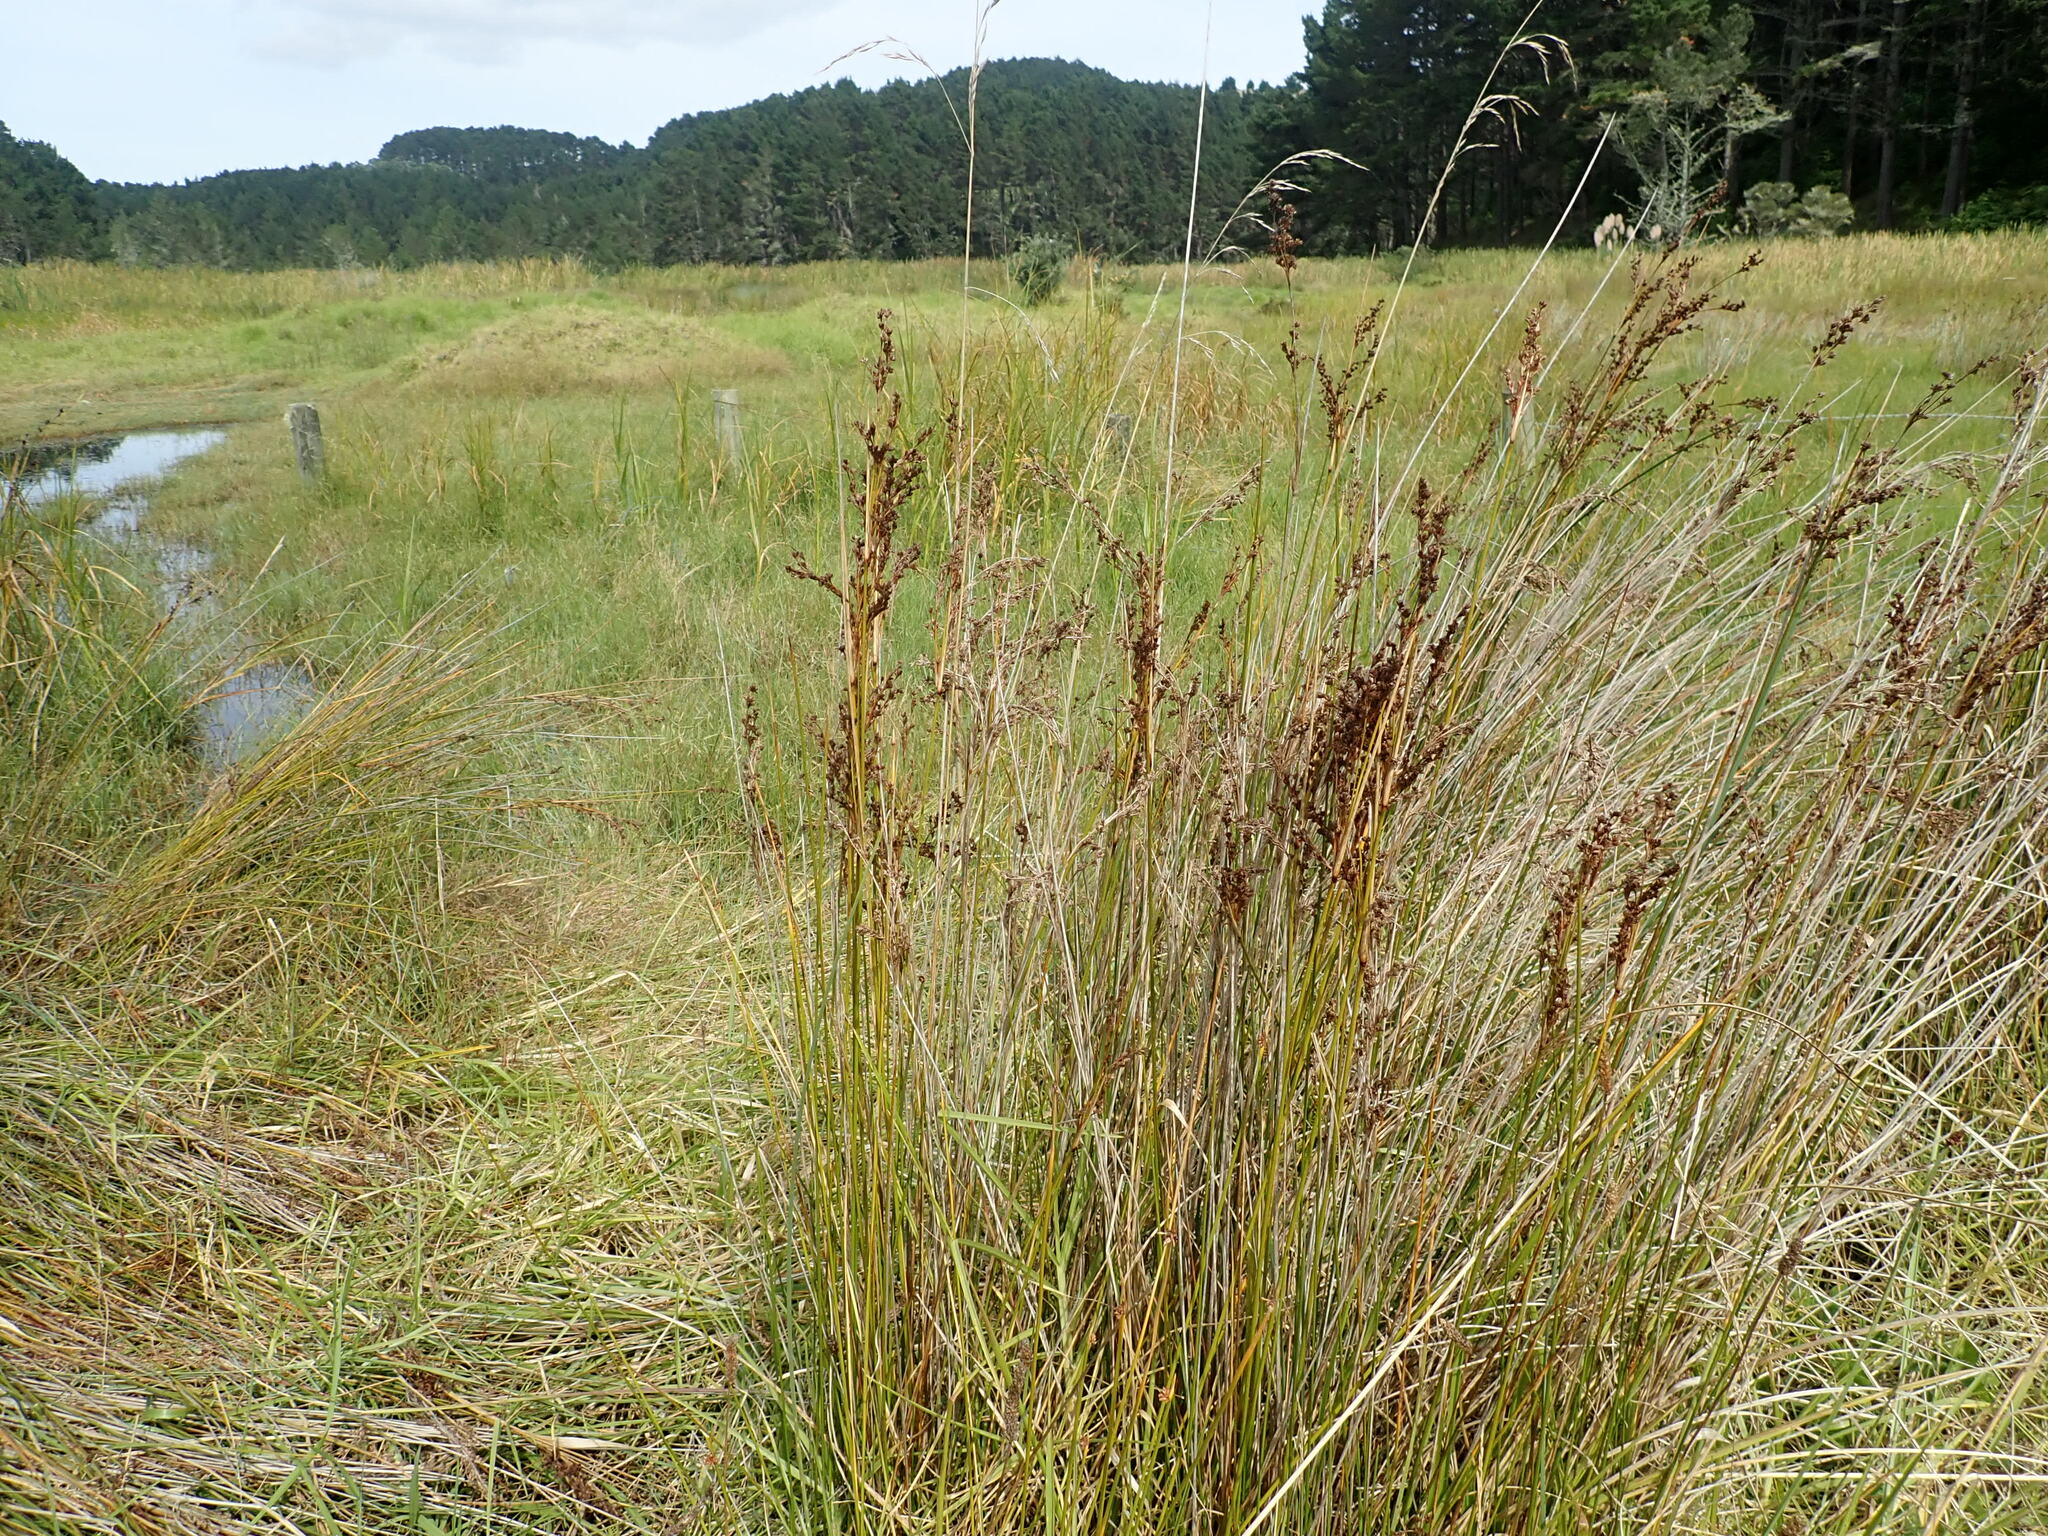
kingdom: Plantae
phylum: Tracheophyta
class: Liliopsida
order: Poales
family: Juncaceae
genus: Juncus
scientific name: Juncus kraussii
